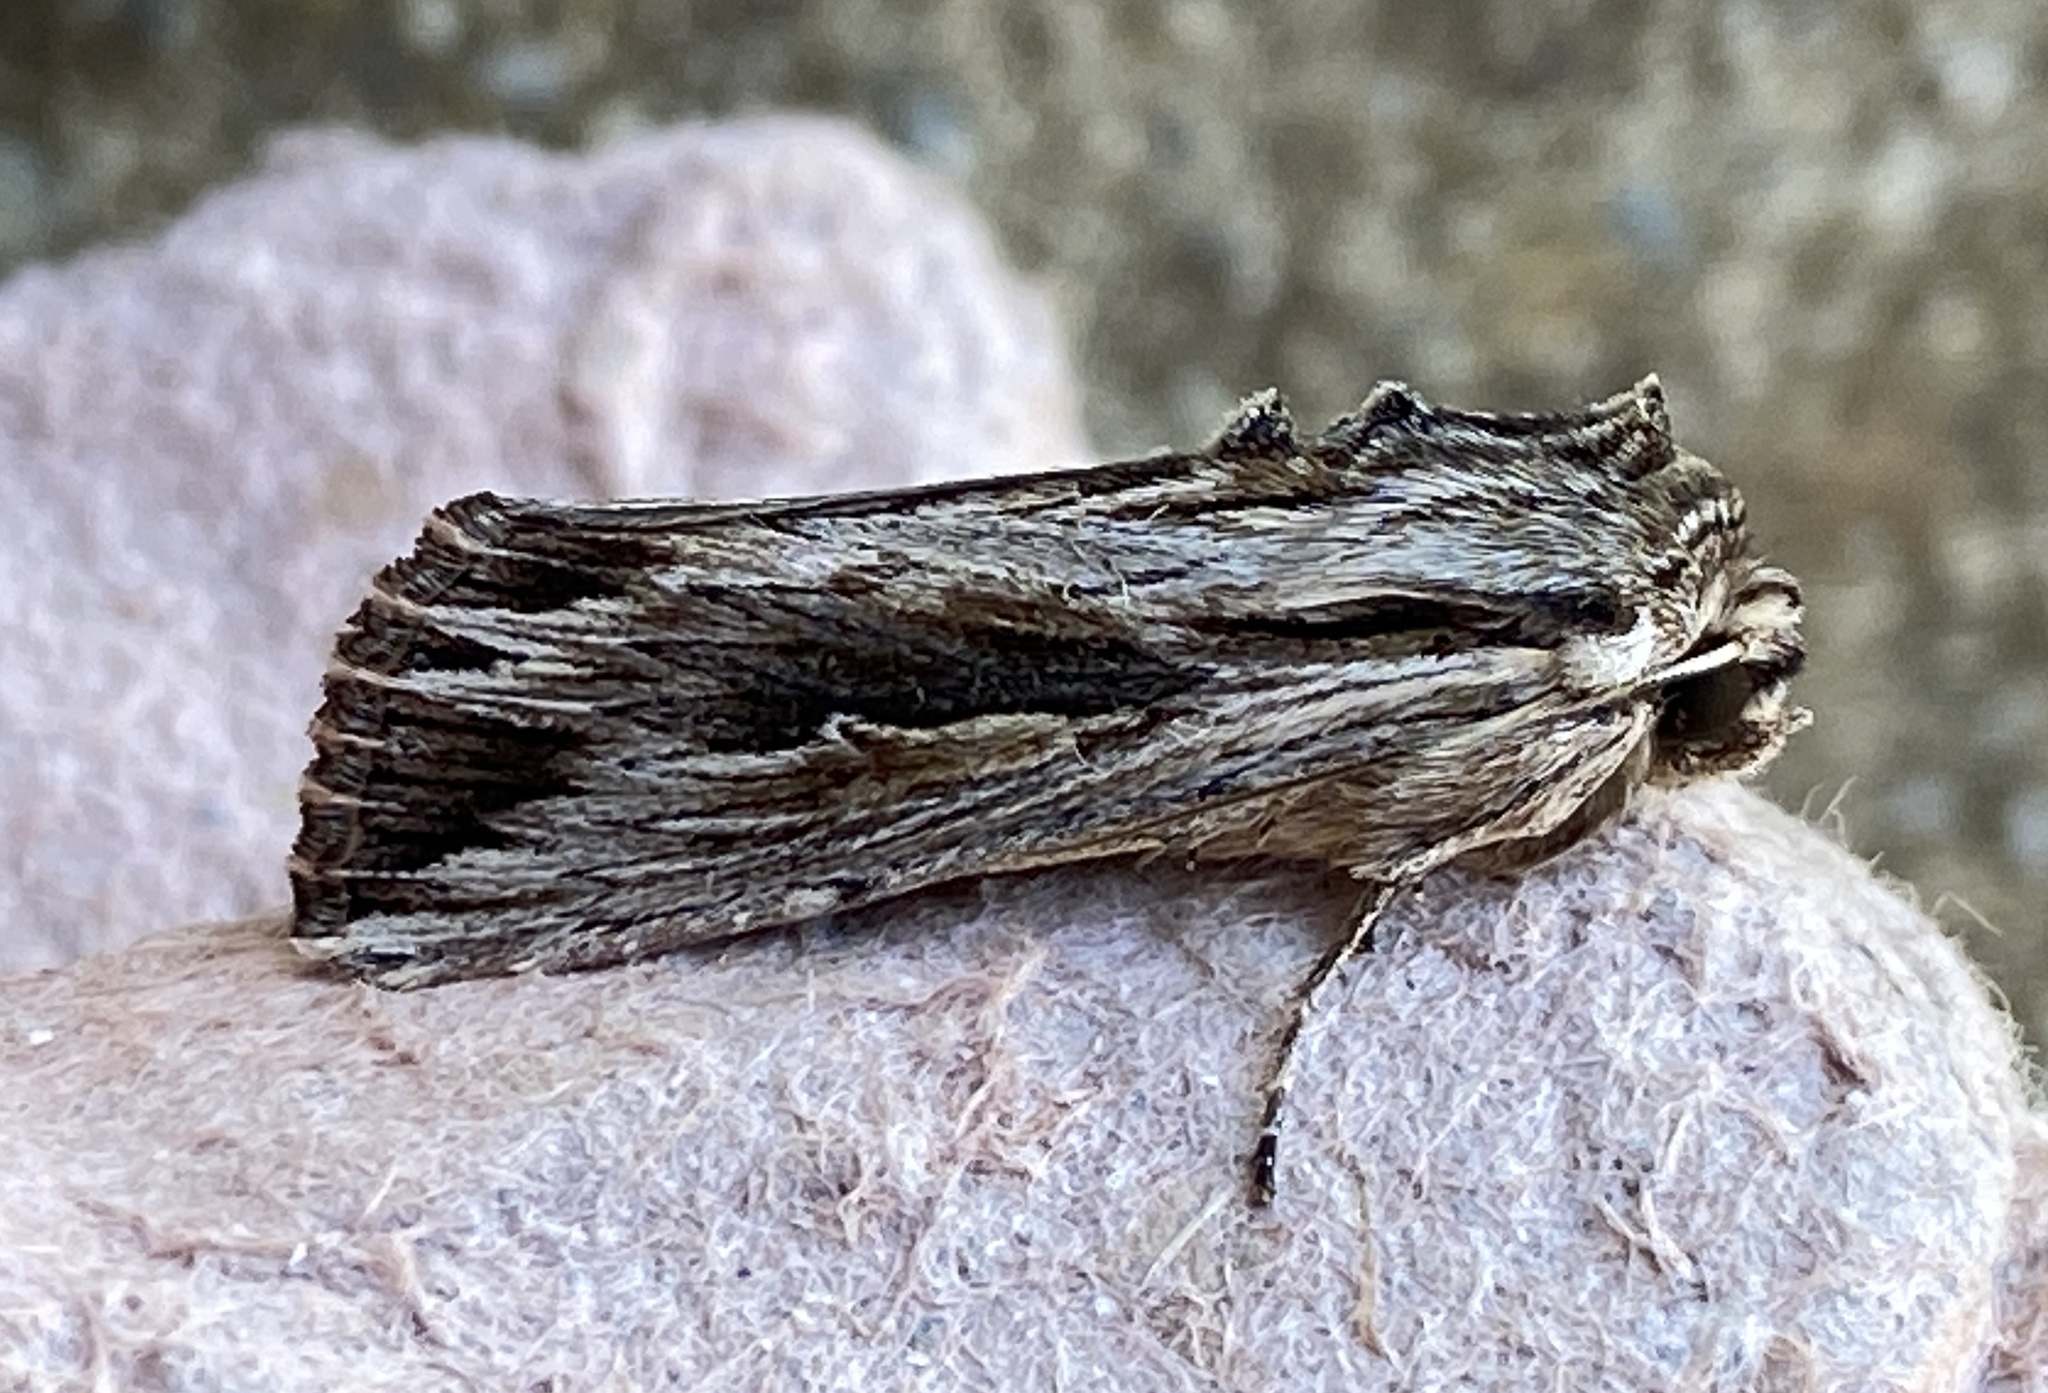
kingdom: Animalia
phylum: Arthropoda
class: Insecta
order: Lepidoptera
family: Noctuidae
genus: Persectania
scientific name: Persectania ewingii
